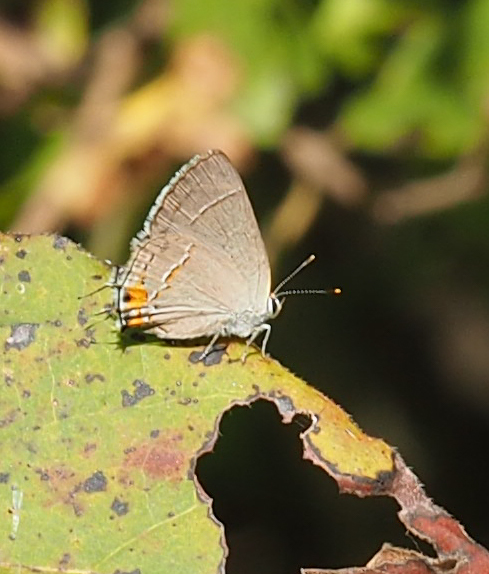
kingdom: Animalia
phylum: Arthropoda
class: Insecta
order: Lepidoptera
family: Lycaenidae
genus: Strymon
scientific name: Strymon melinus
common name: Gray hairstreak
